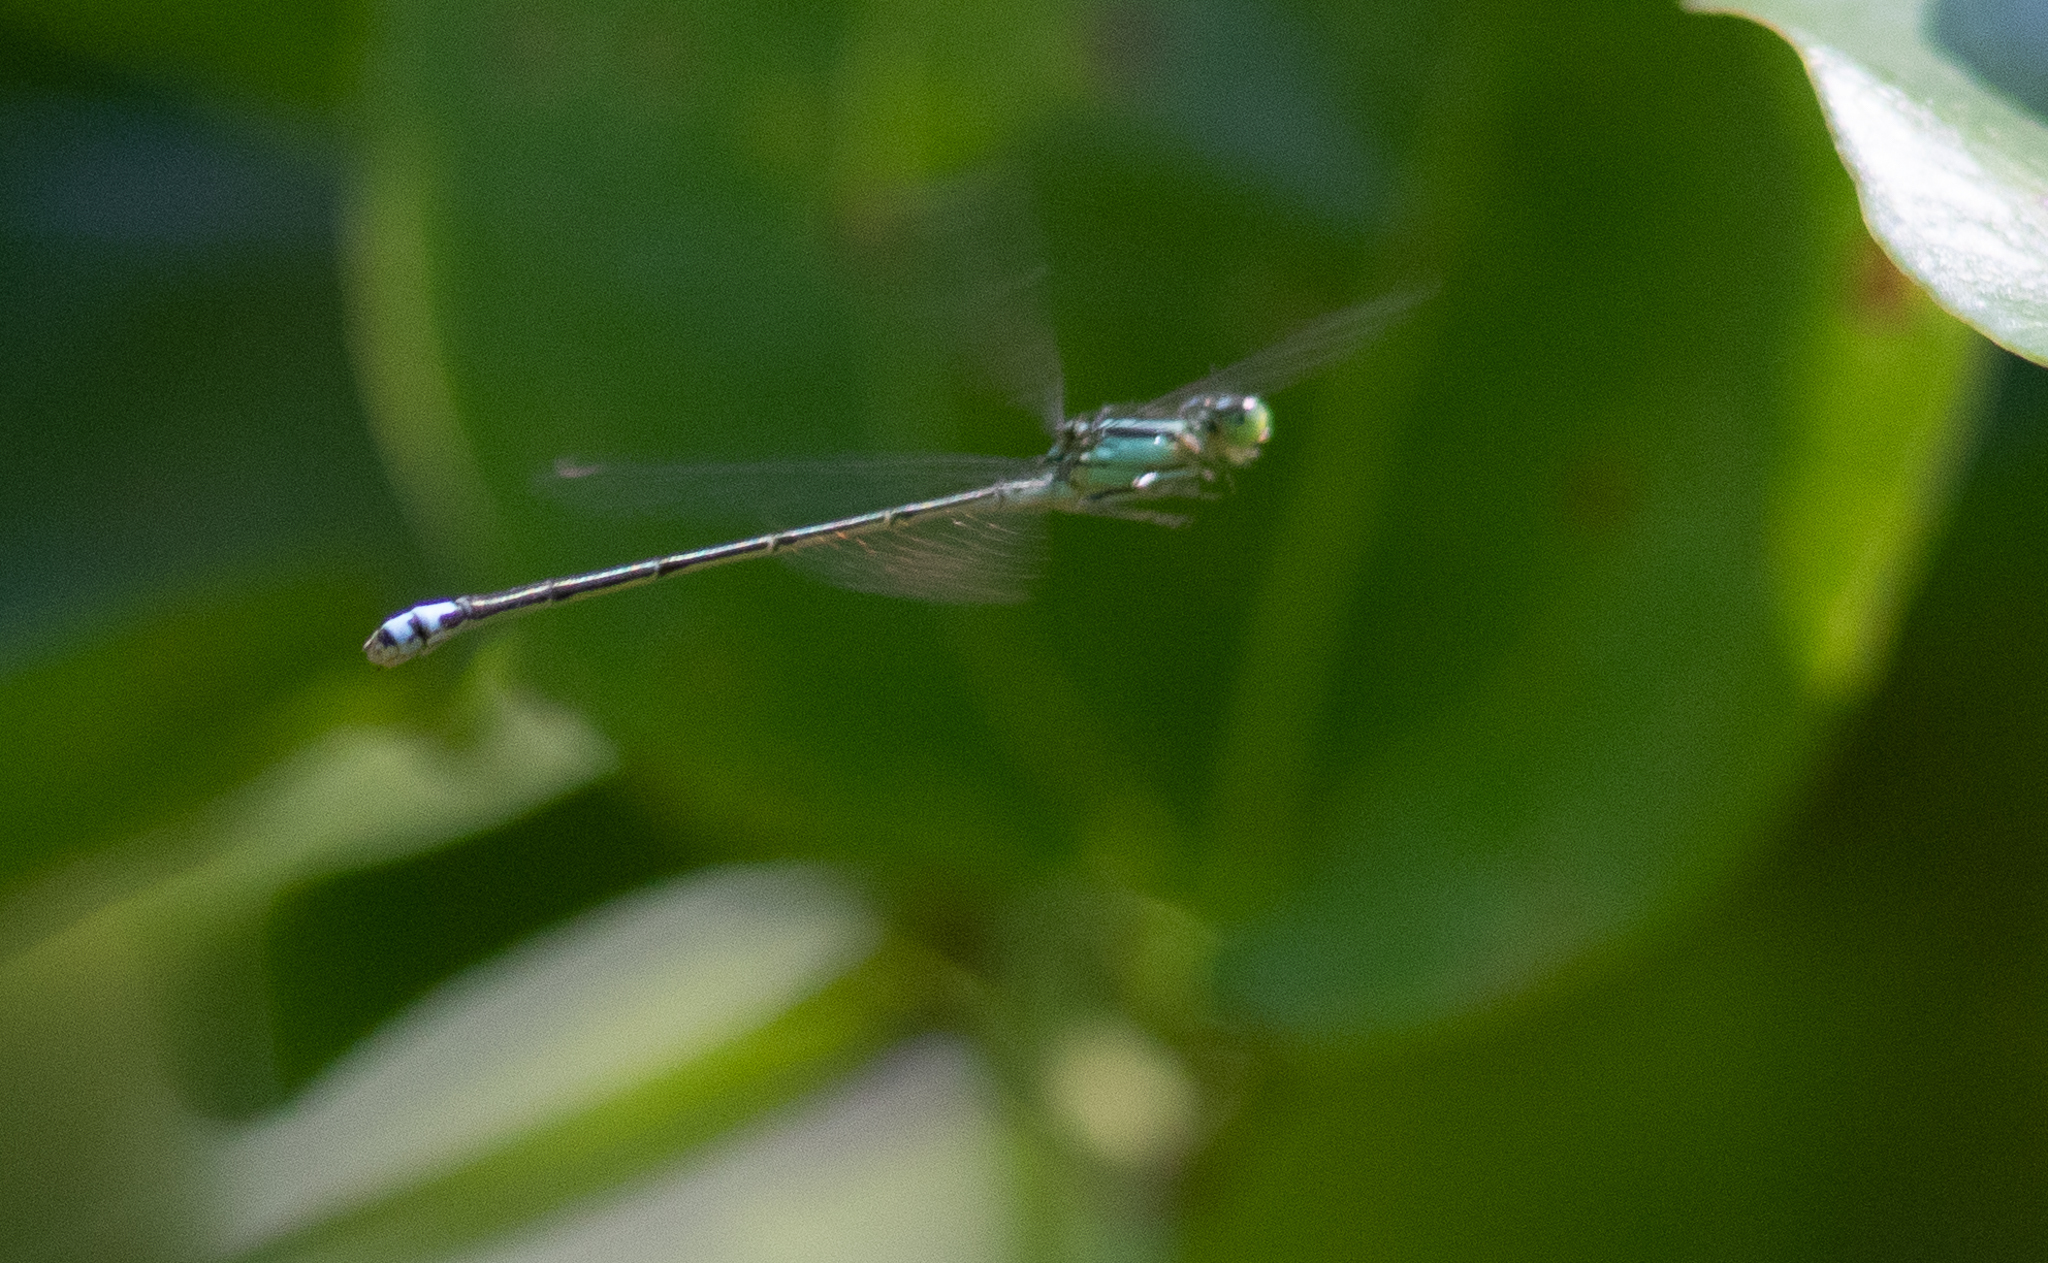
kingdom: Animalia
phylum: Arthropoda
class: Insecta
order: Odonata
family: Coenagrionidae
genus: Ischnura
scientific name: Ischnura verticalis
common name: Eastern forktail
